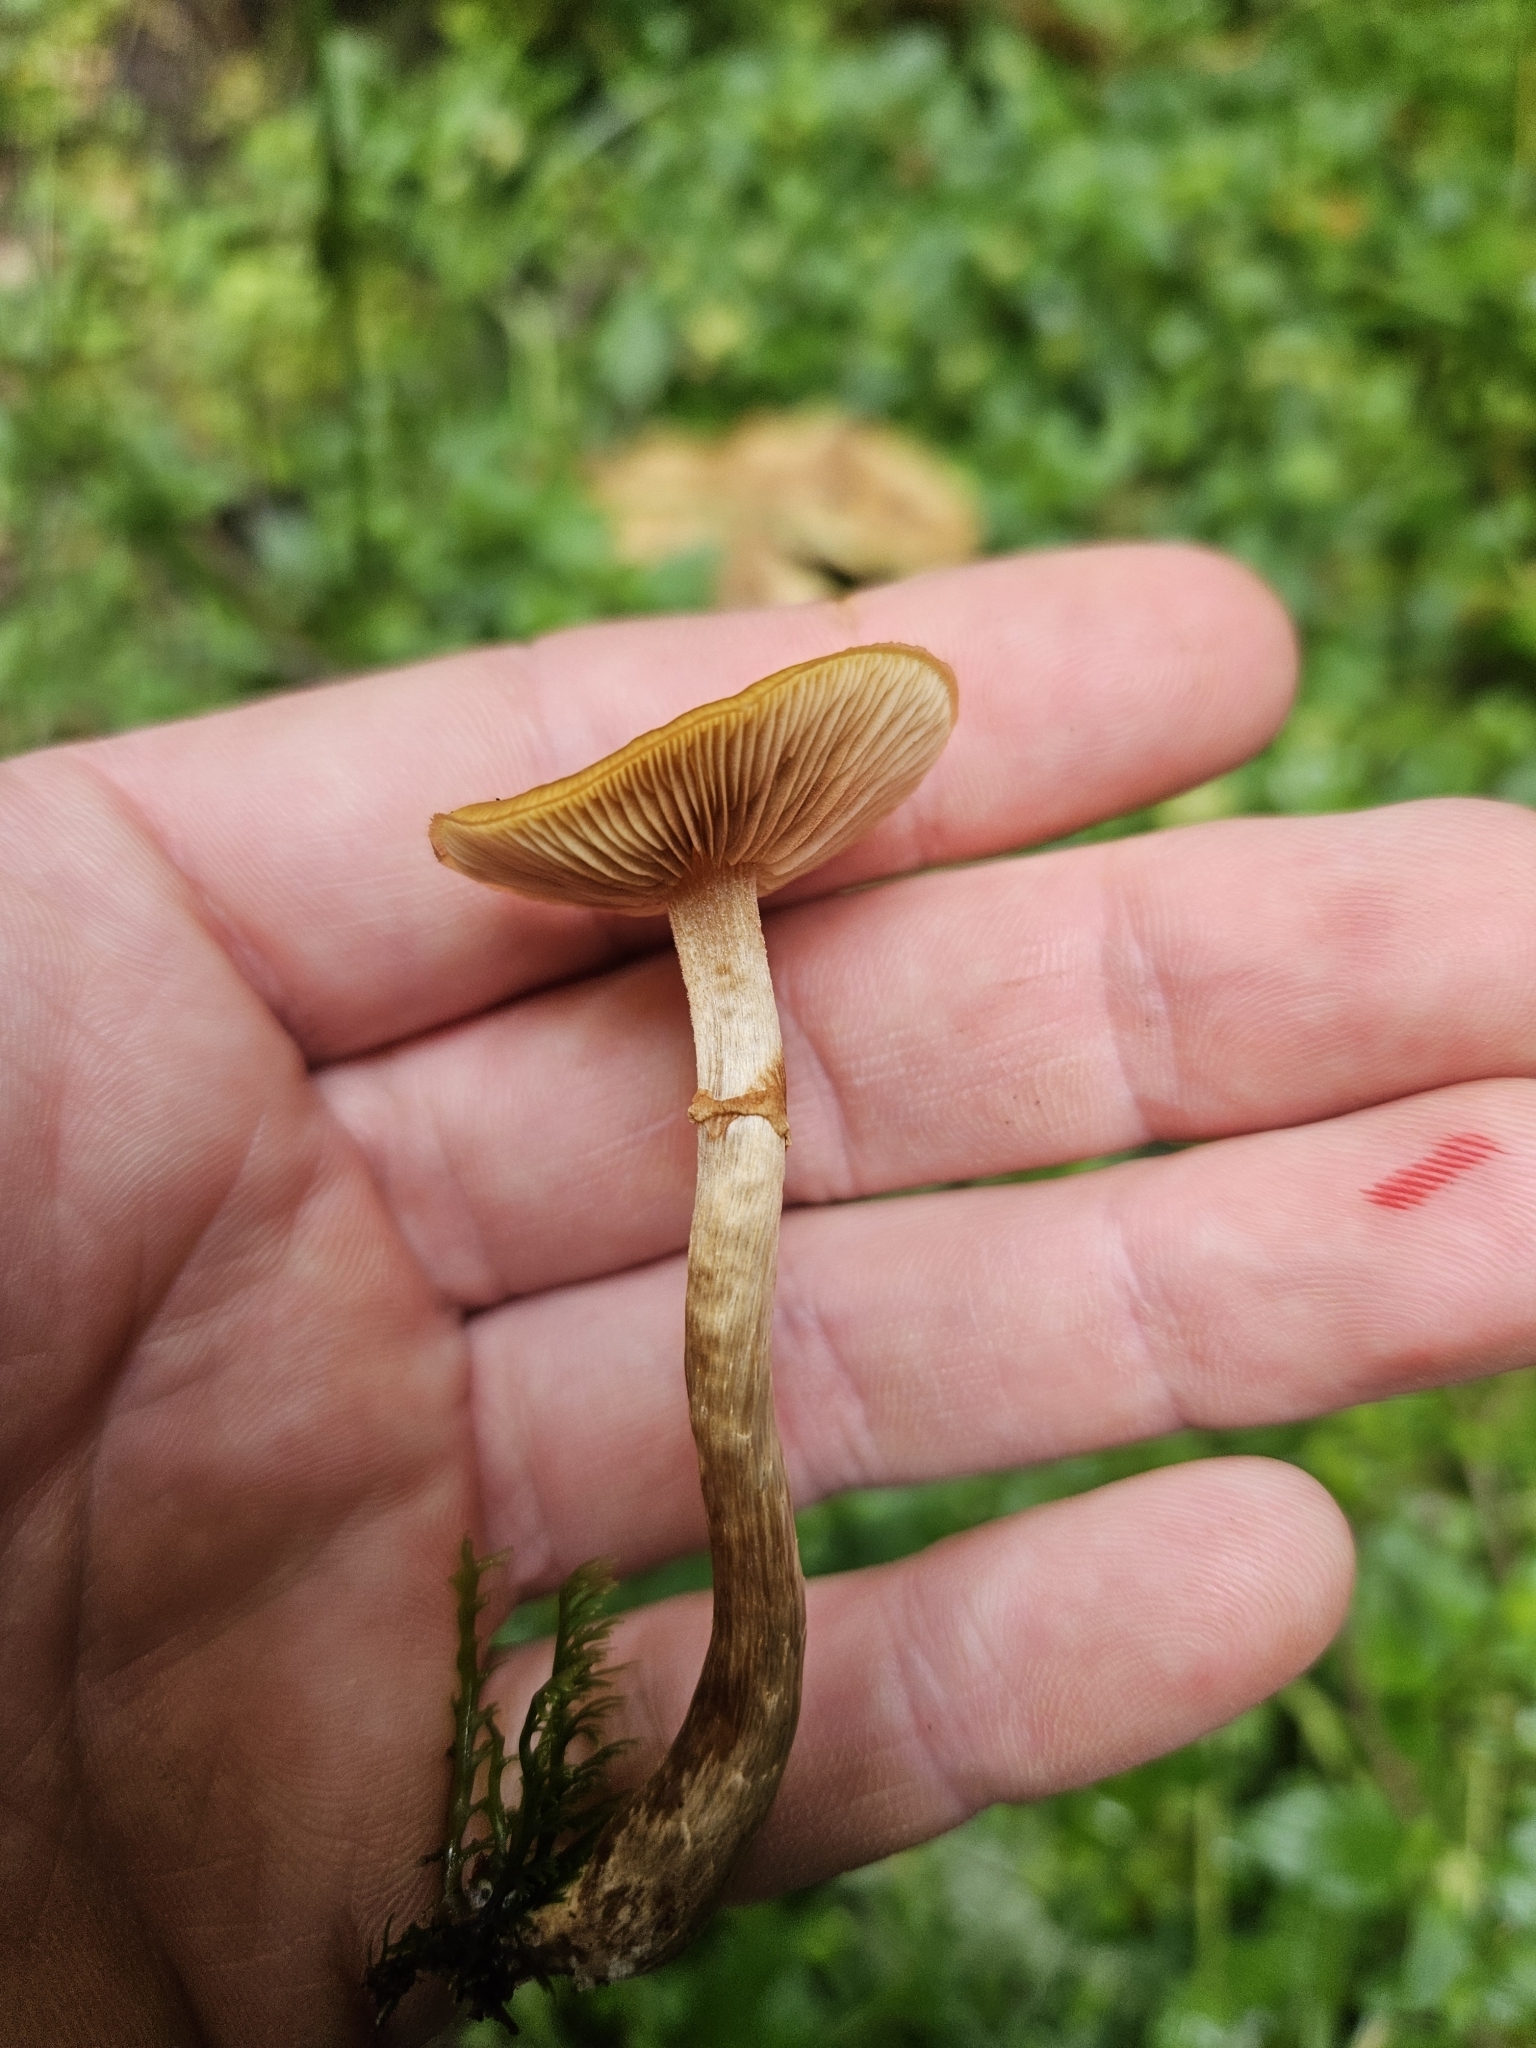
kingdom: Fungi
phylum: Basidiomycota
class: Agaricomycetes
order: Agaricales
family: Hymenogastraceae
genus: Galerina
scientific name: Galerina patagonica
